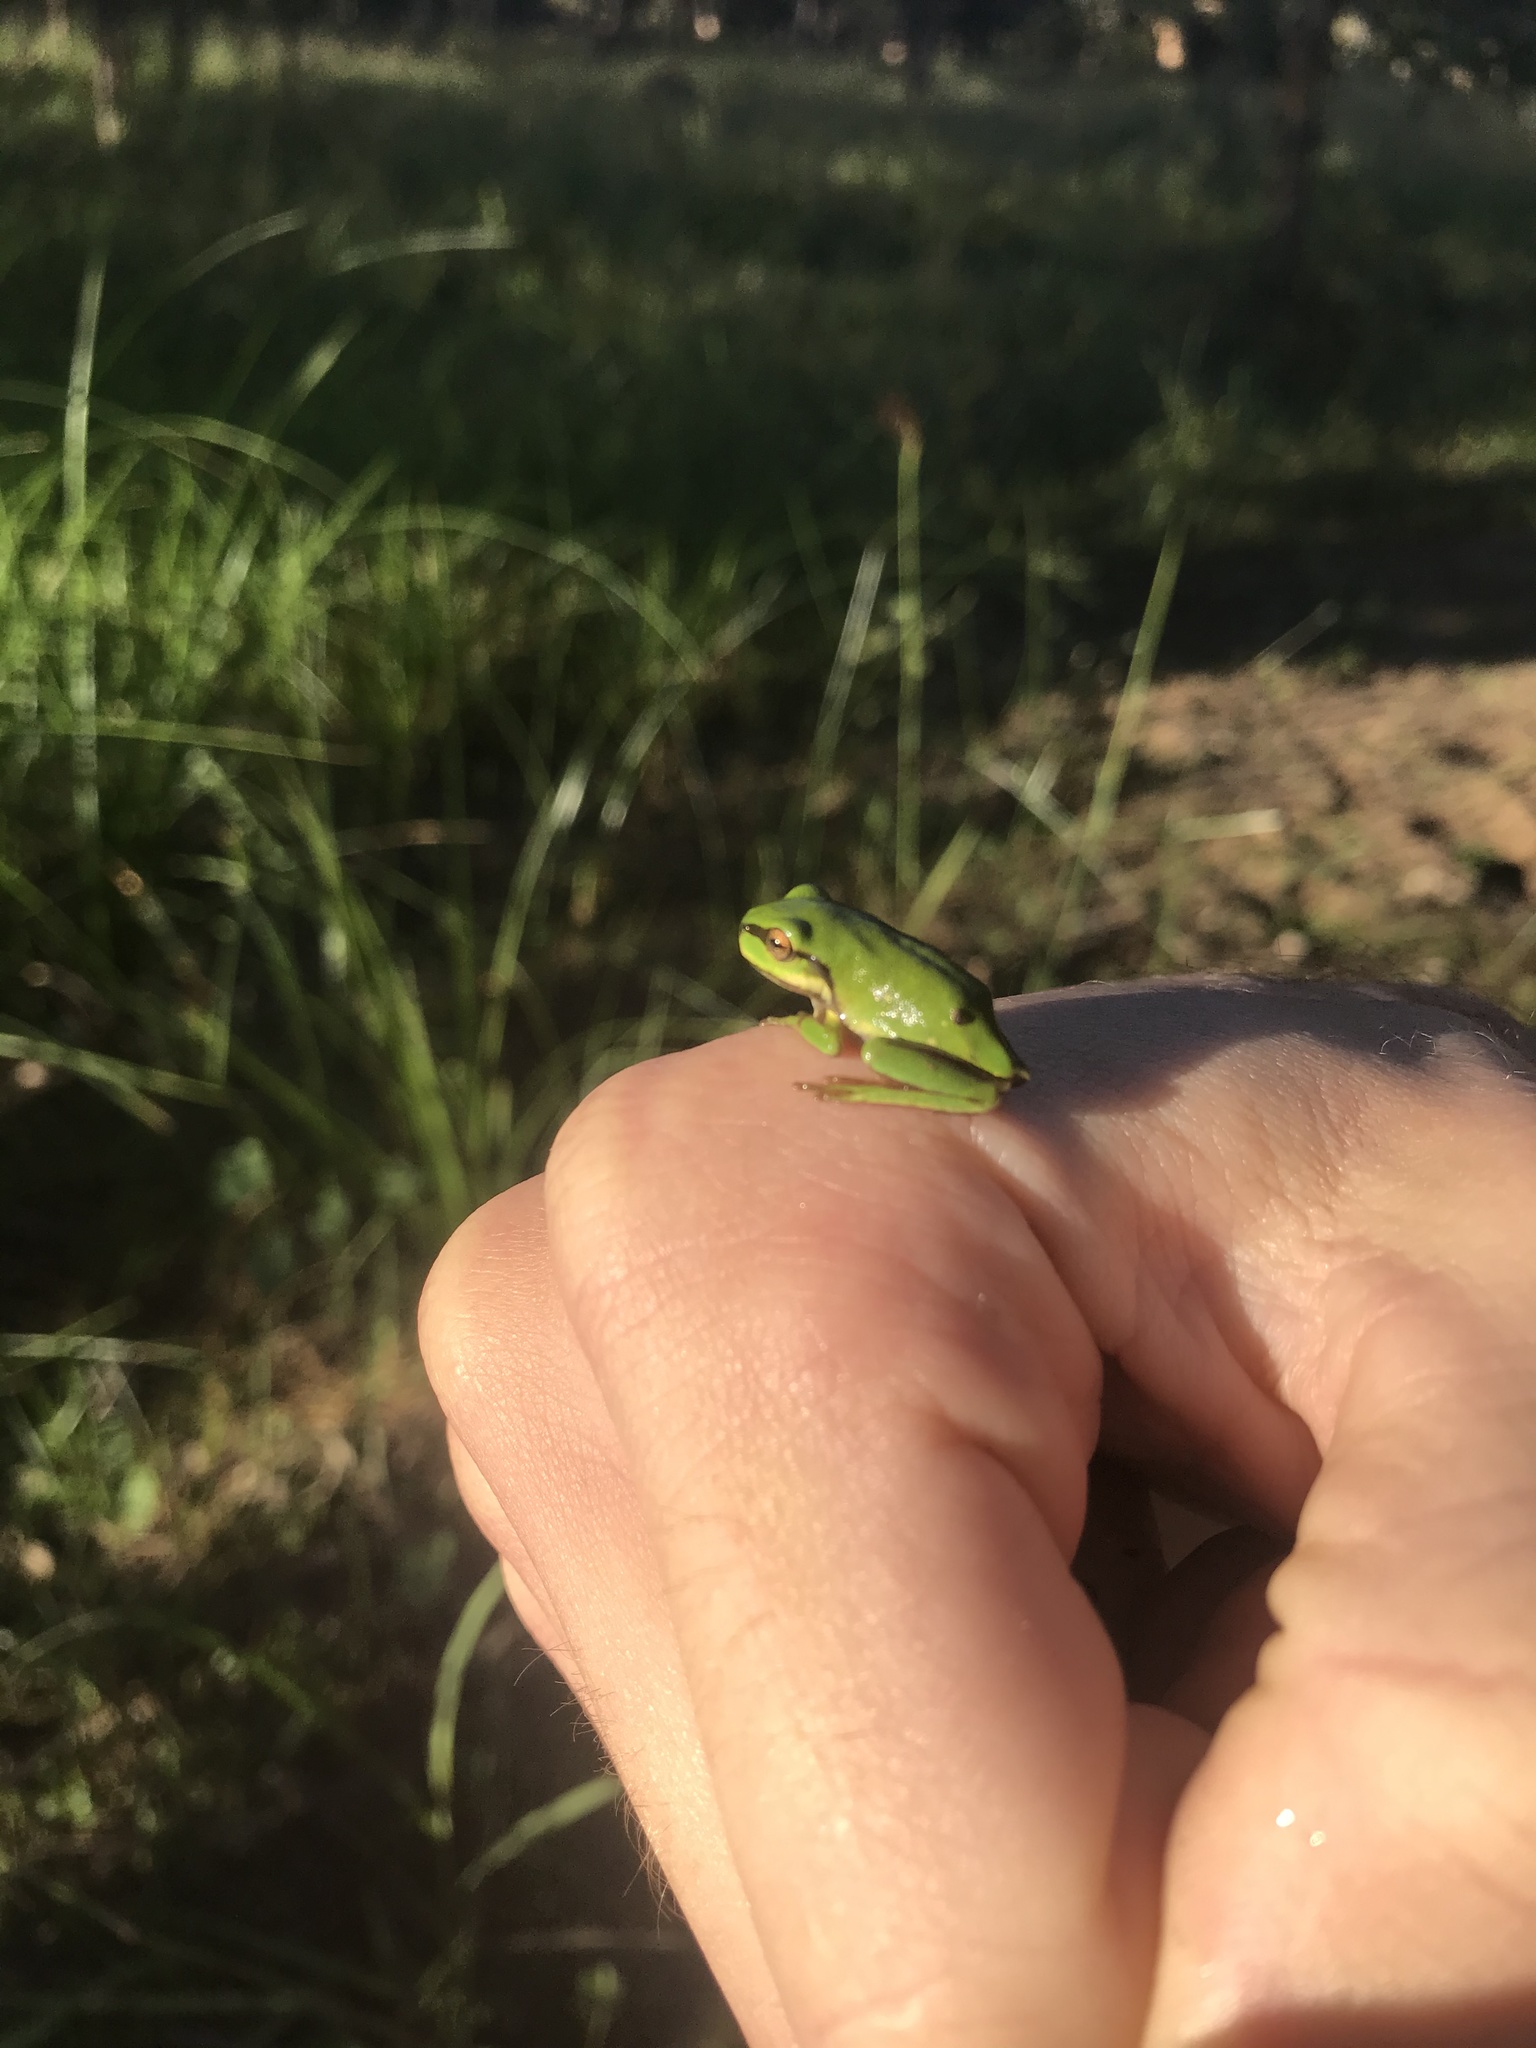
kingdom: Animalia
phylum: Chordata
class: Amphibia
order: Anura
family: Pelodryadidae
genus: Ranoidea
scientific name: Ranoidea caerulea
